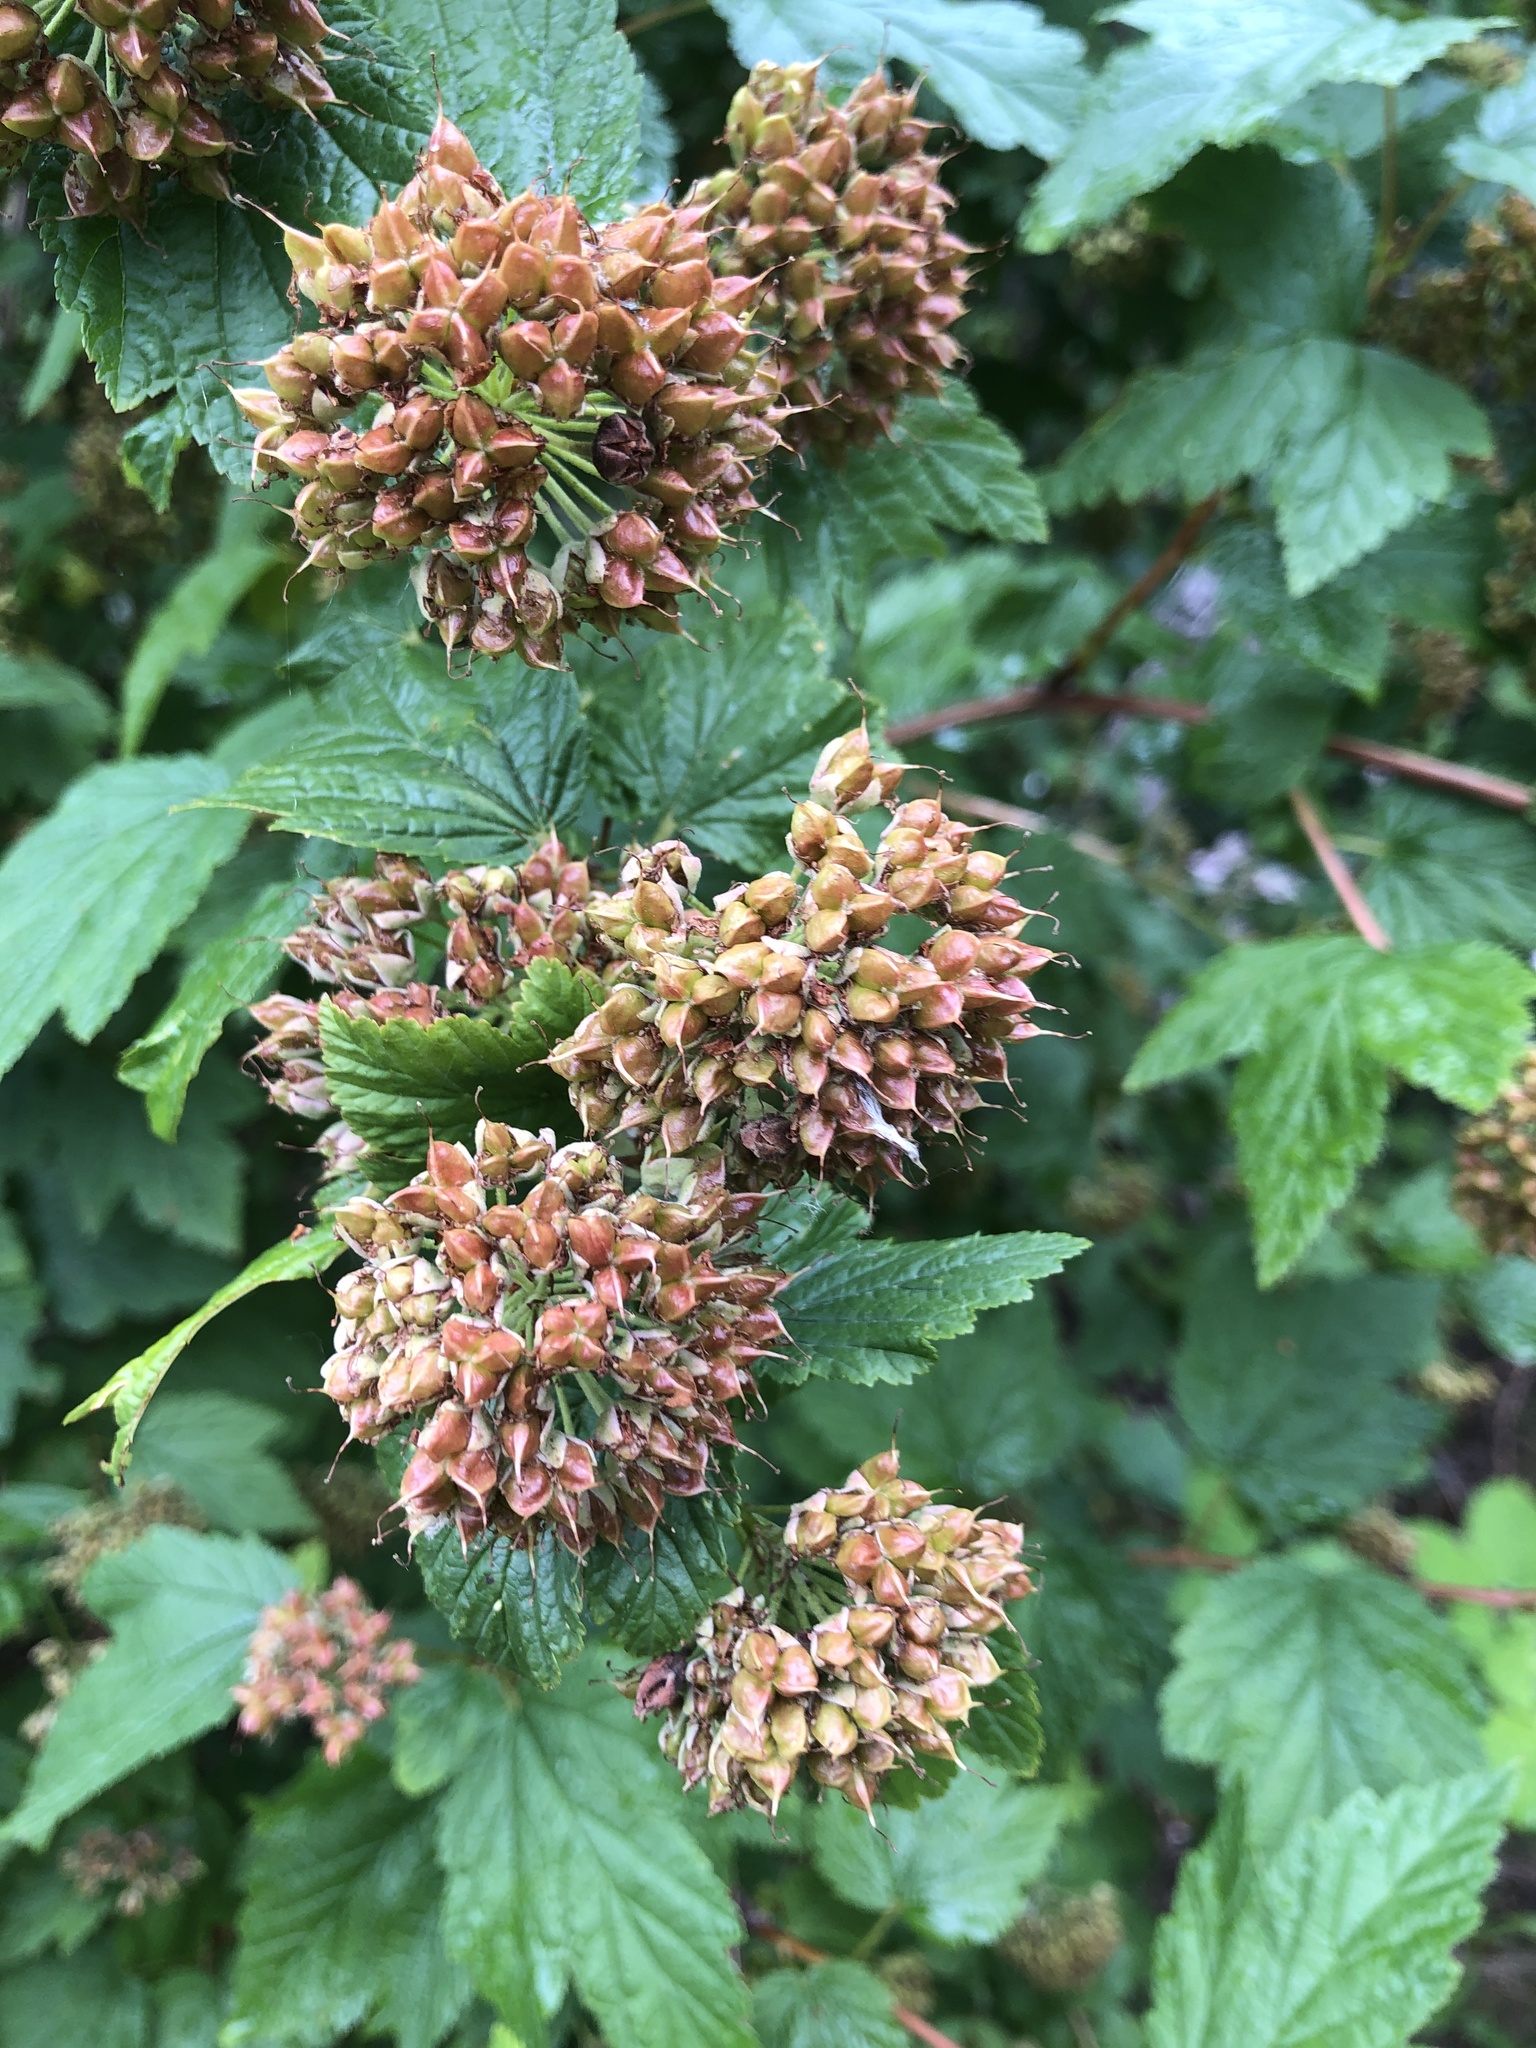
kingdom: Plantae
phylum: Tracheophyta
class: Magnoliopsida
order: Rosales
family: Rosaceae
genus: Physocarpus
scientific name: Physocarpus capitatus
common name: Pacific ninebark
